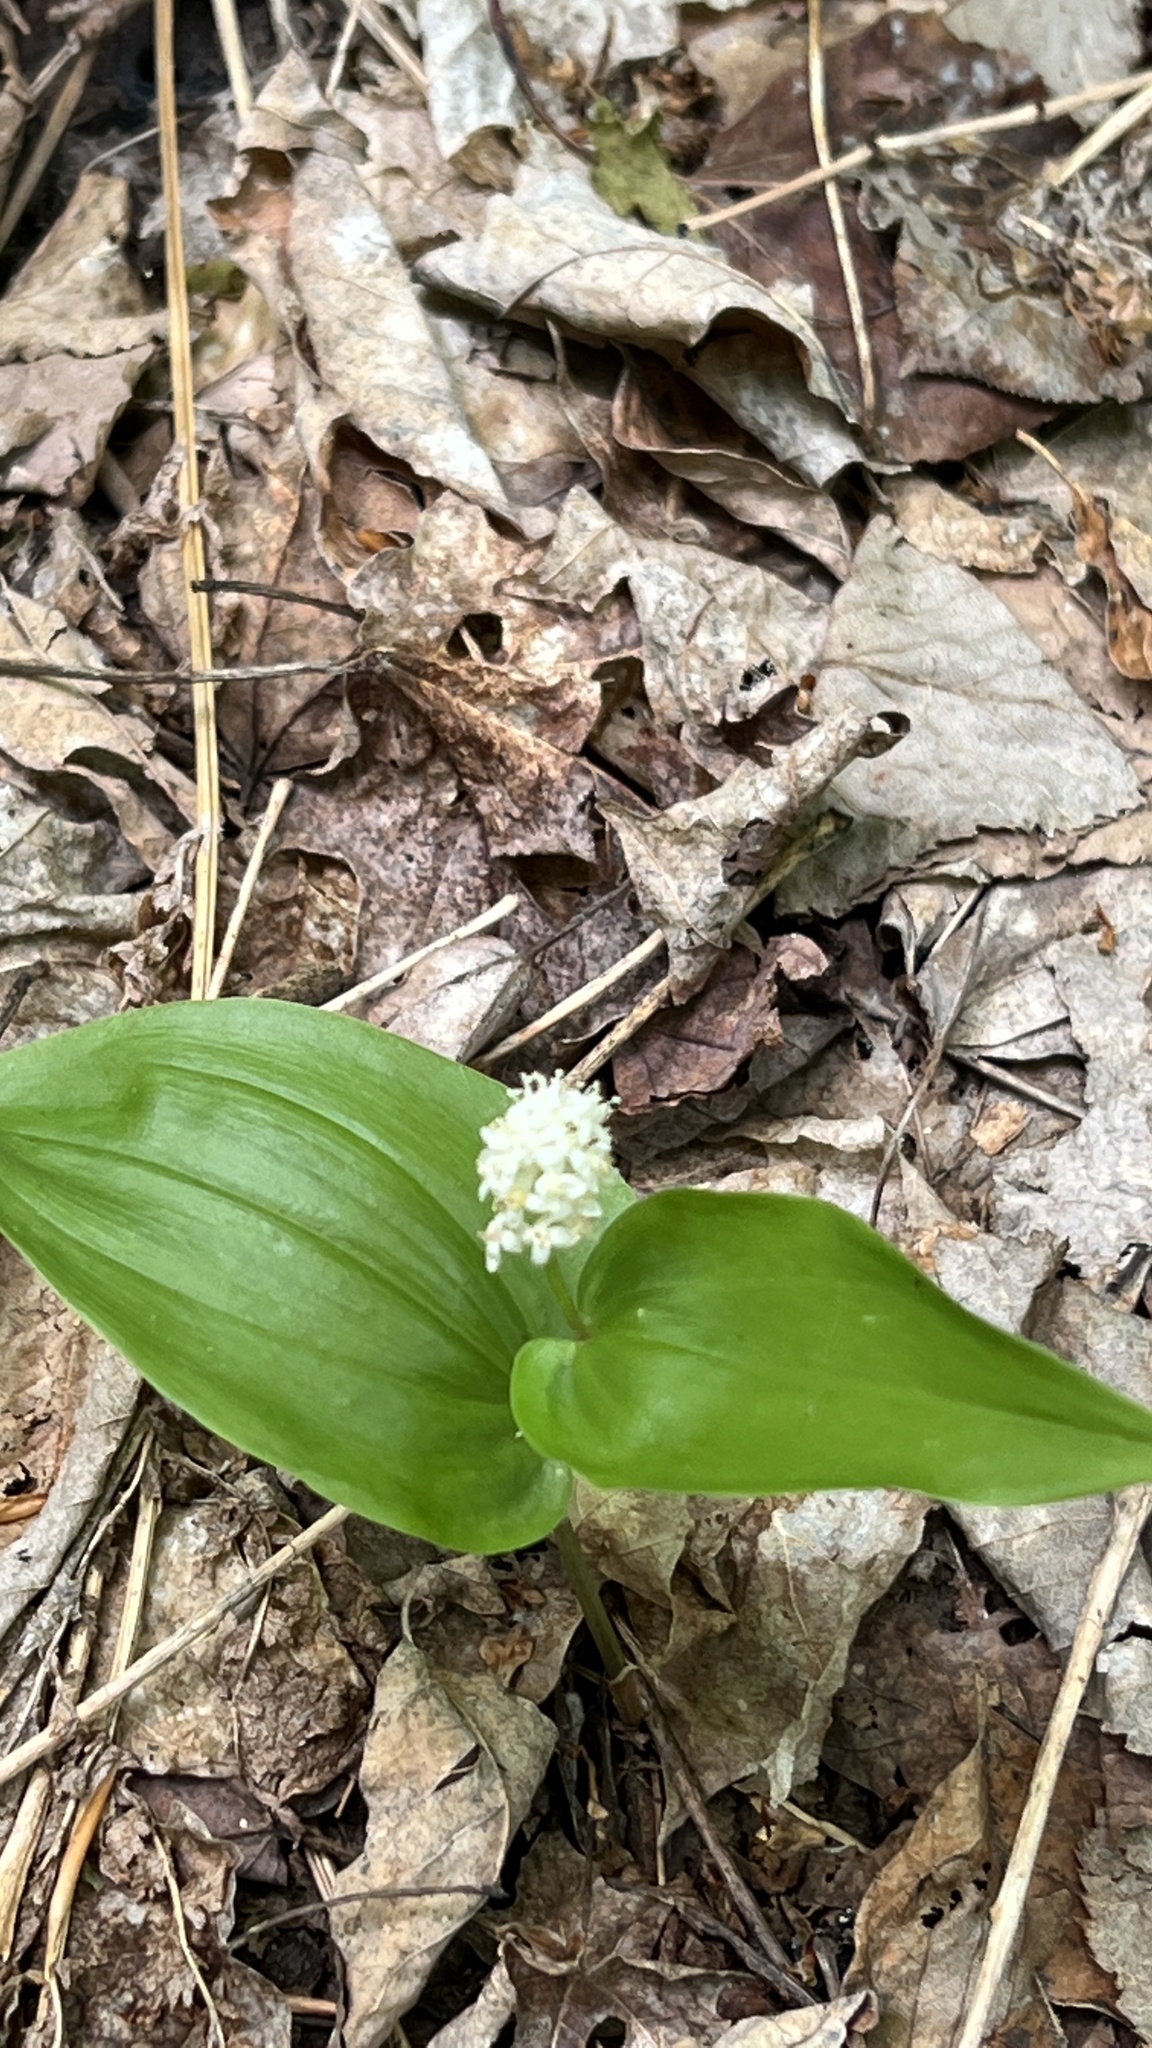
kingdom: Plantae
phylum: Tracheophyta
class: Liliopsida
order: Asparagales
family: Asparagaceae
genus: Maianthemum
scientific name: Maianthemum canadense
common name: False lily-of-the-valley
